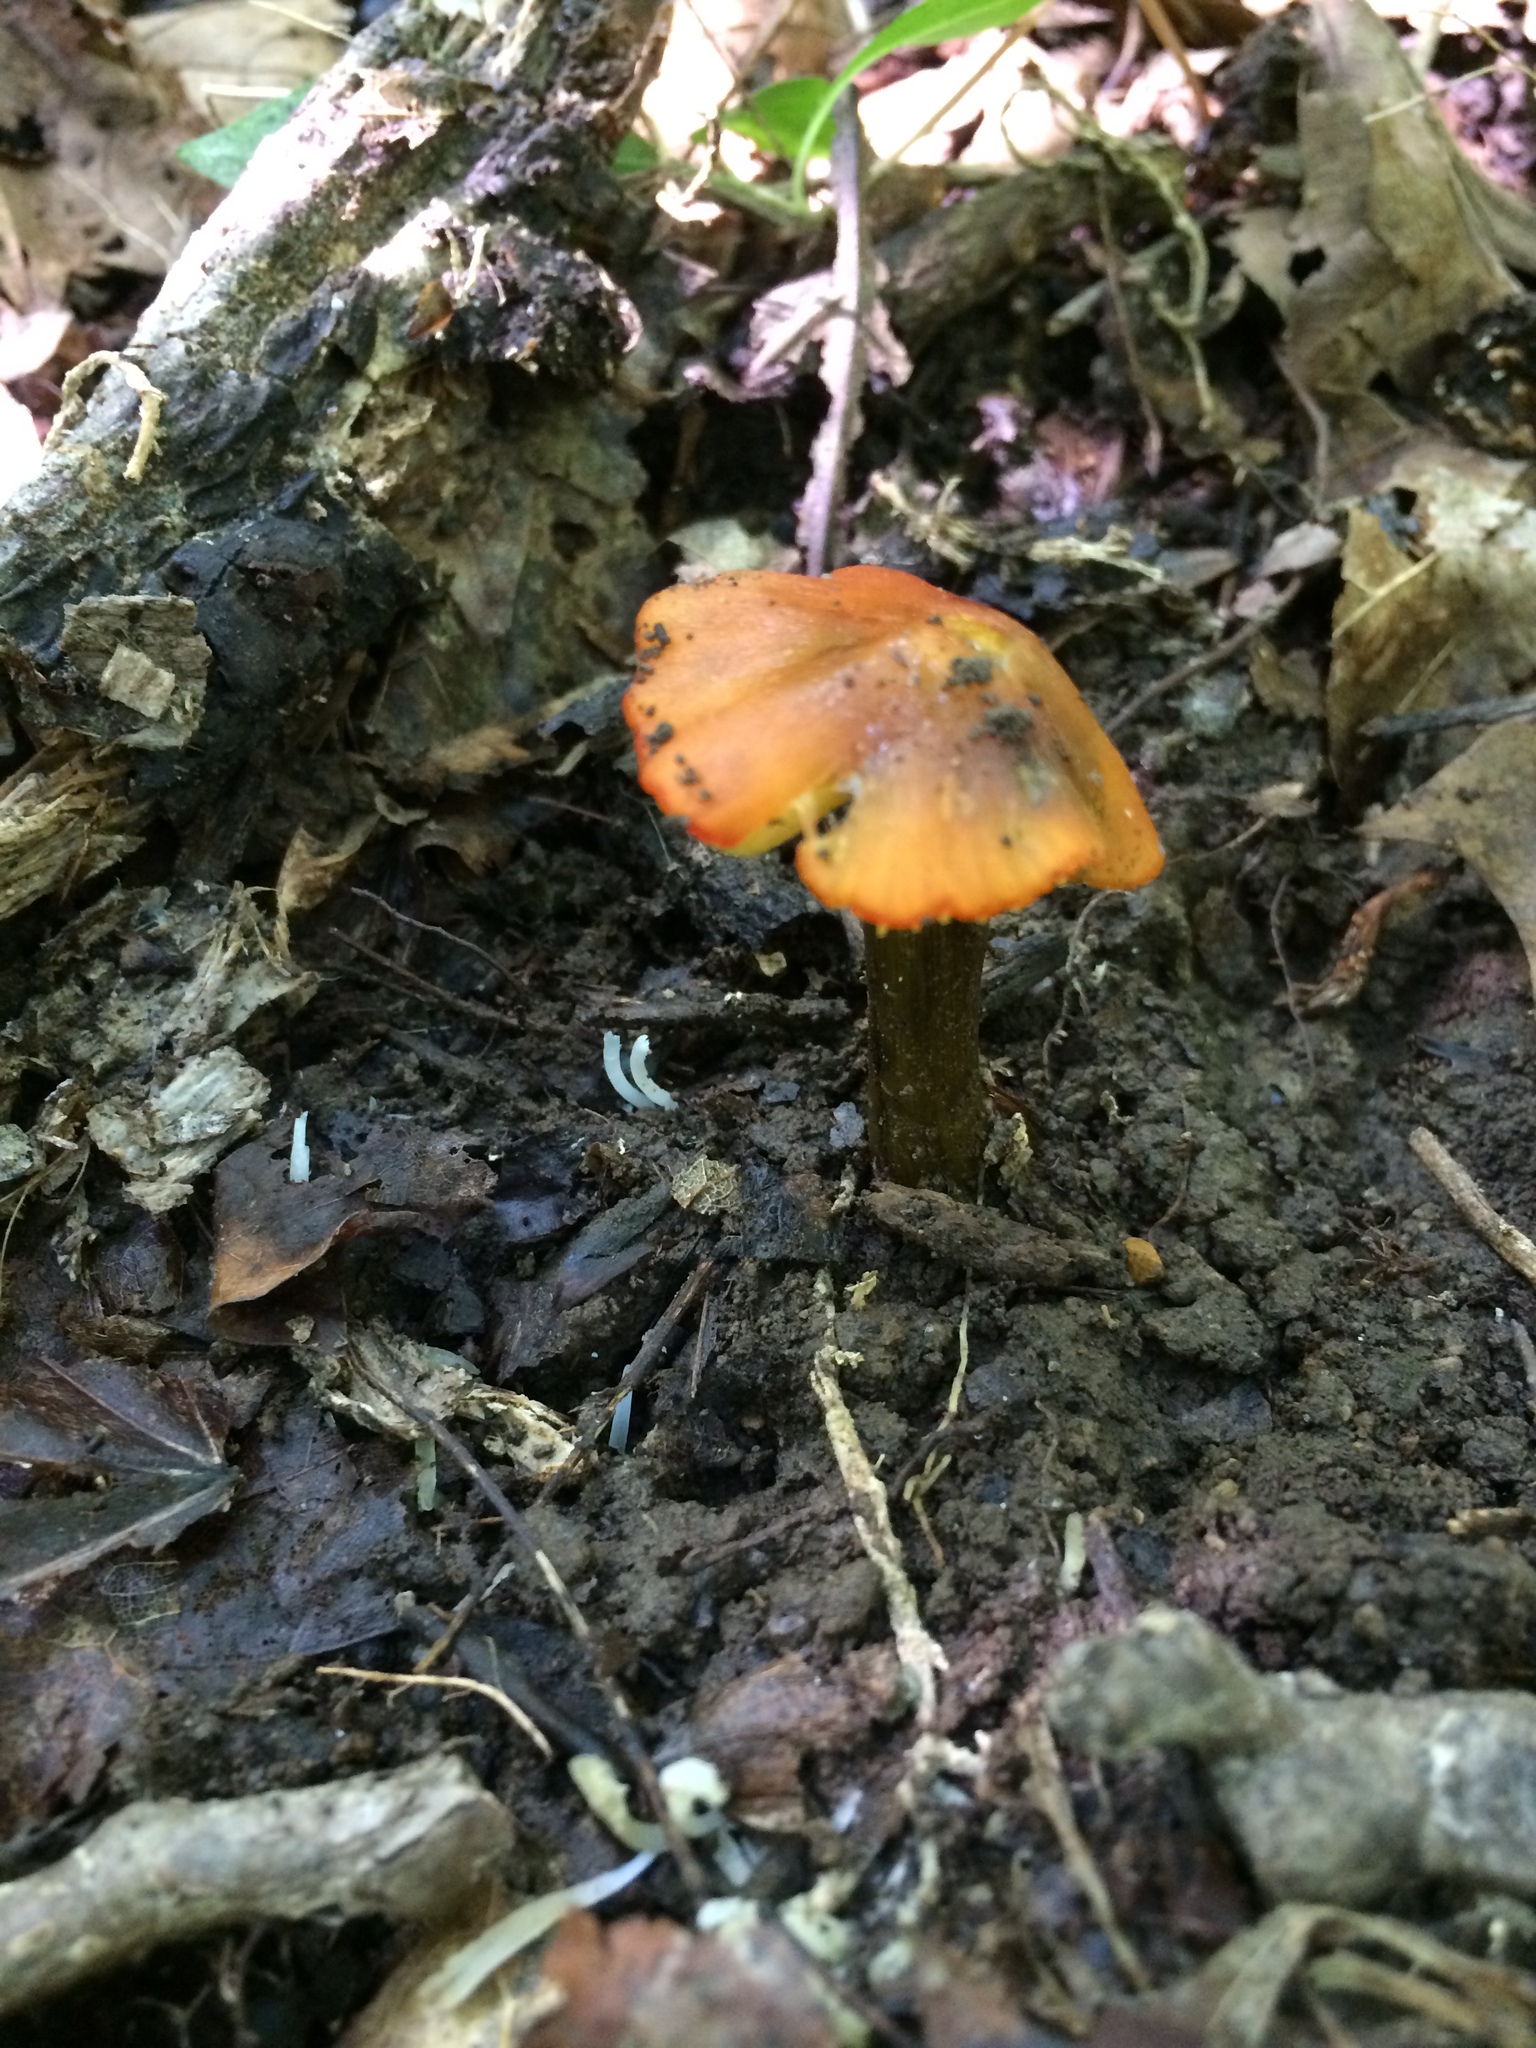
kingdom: Fungi
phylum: Basidiomycota
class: Agaricomycetes
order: Agaricales
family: Hygrophoraceae
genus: Hygrocybe
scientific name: Hygrocybe conica
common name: Blackening wax-cap
